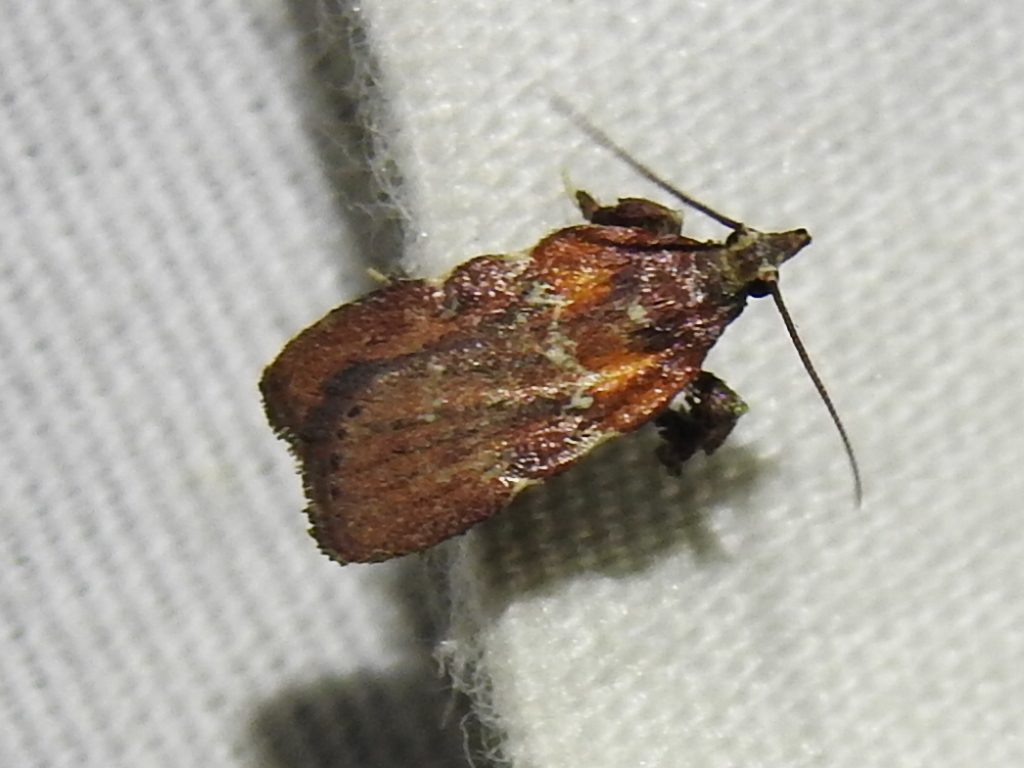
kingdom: Animalia
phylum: Arthropoda
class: Insecta
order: Lepidoptera
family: Pyralidae
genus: Galasa
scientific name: Galasa nigrinodis
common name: Boxwood leaftier moth
